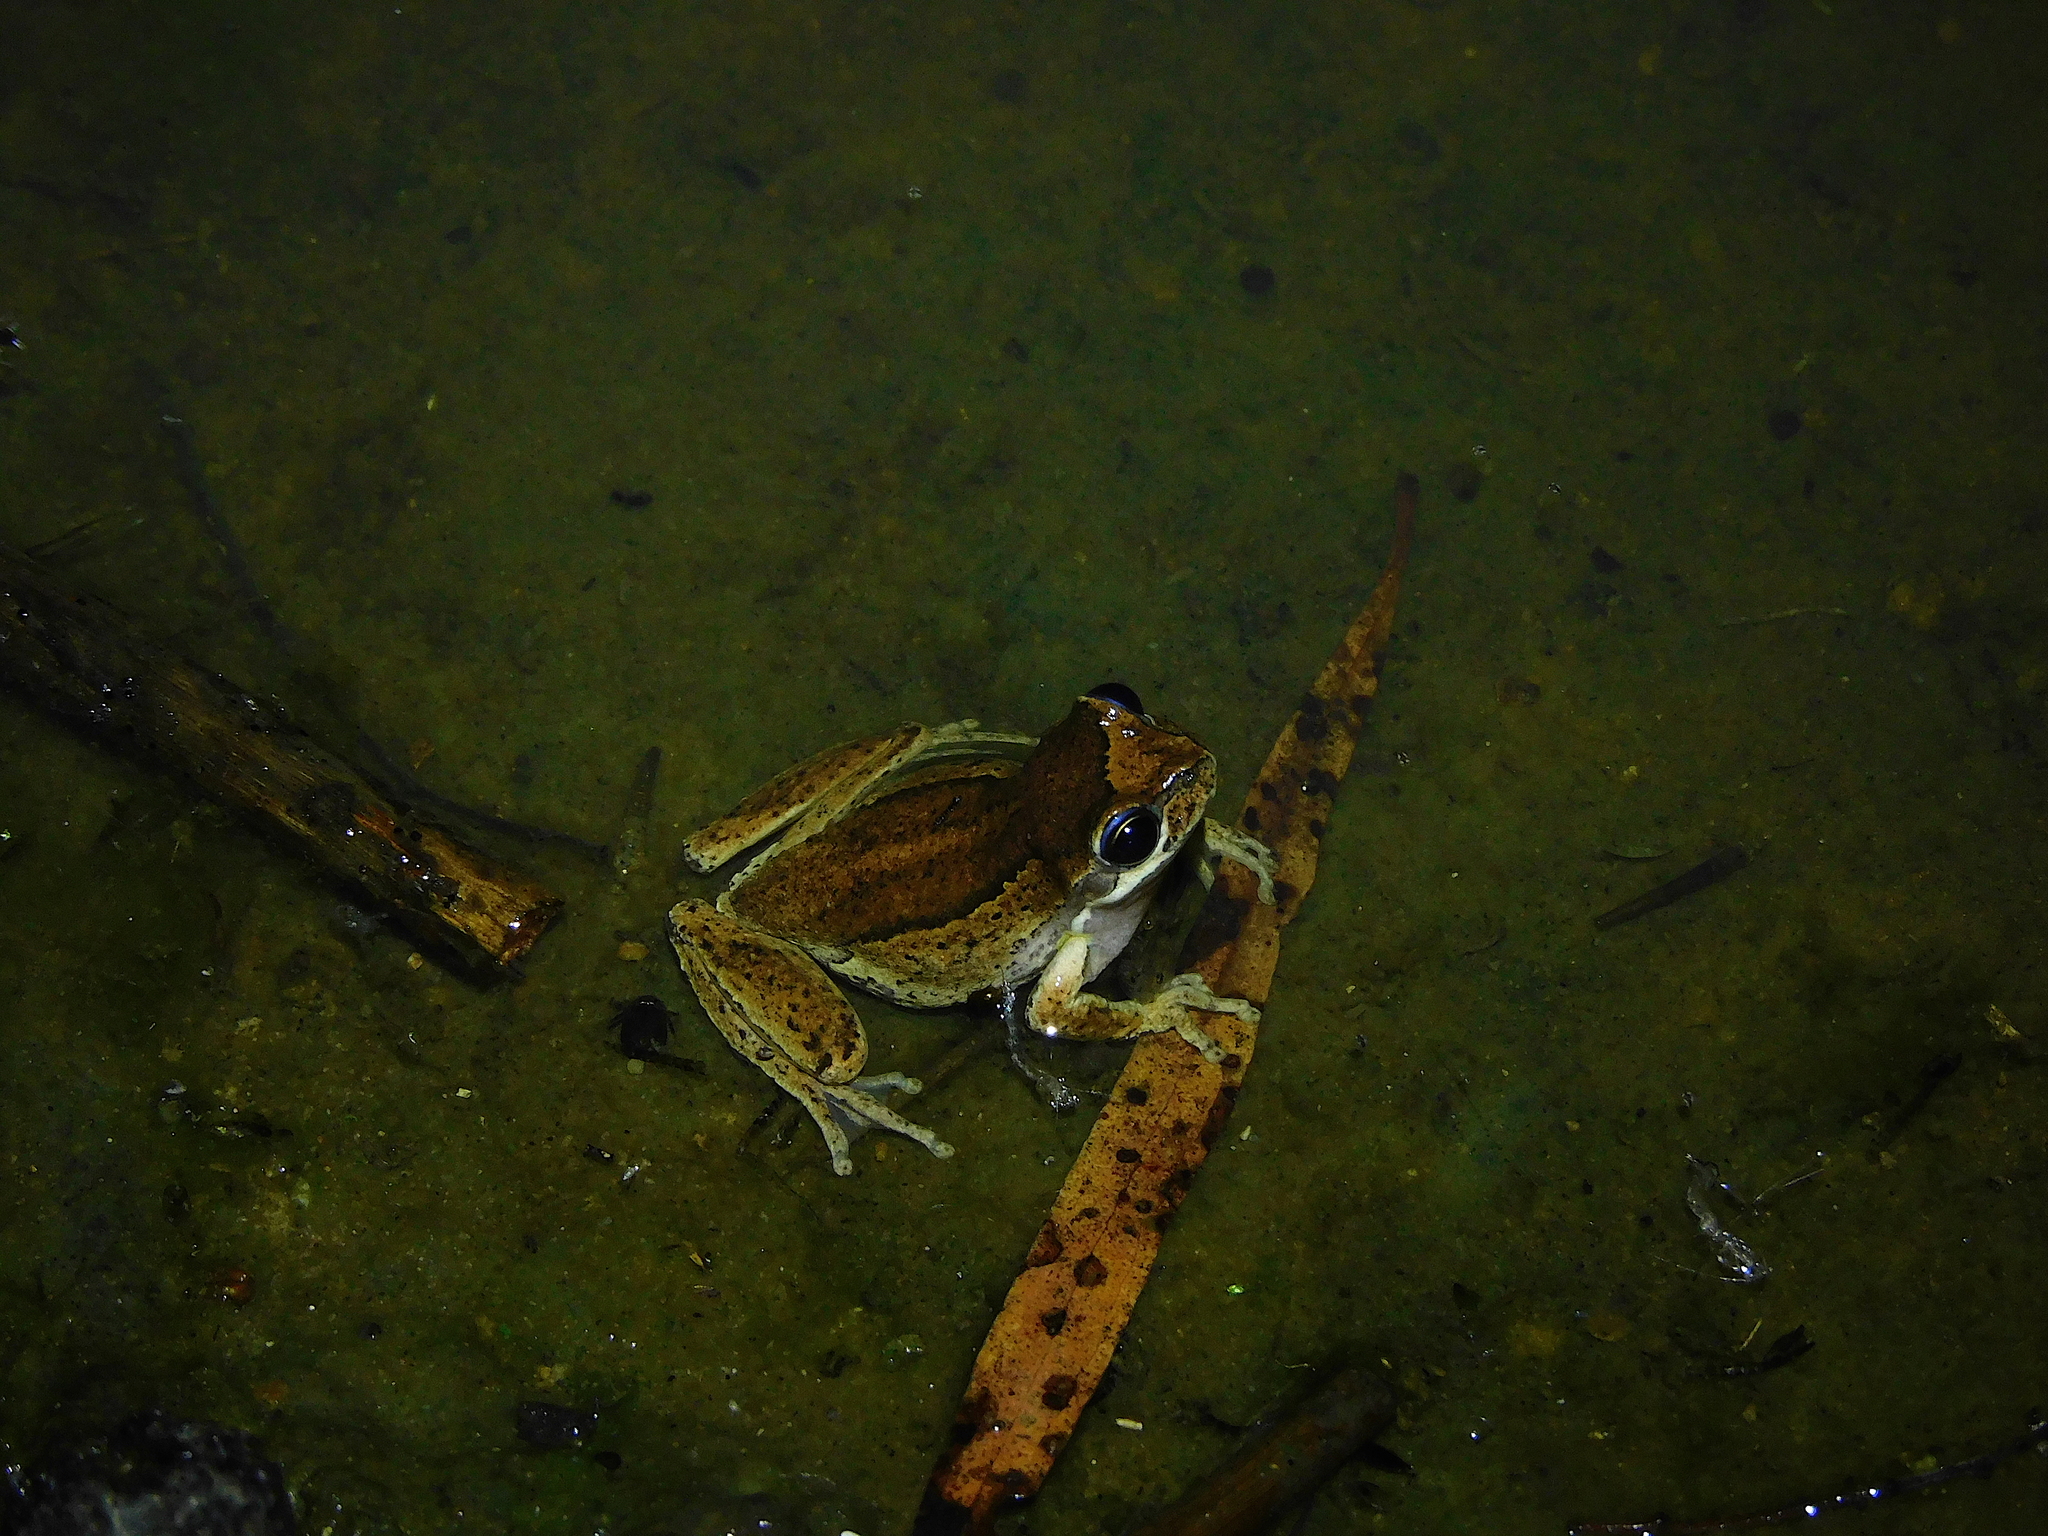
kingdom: Animalia
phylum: Chordata
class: Amphibia
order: Anura
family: Pelodryadidae
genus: Litoria
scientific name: Litoria ewingii
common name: Southern brown tree frog
